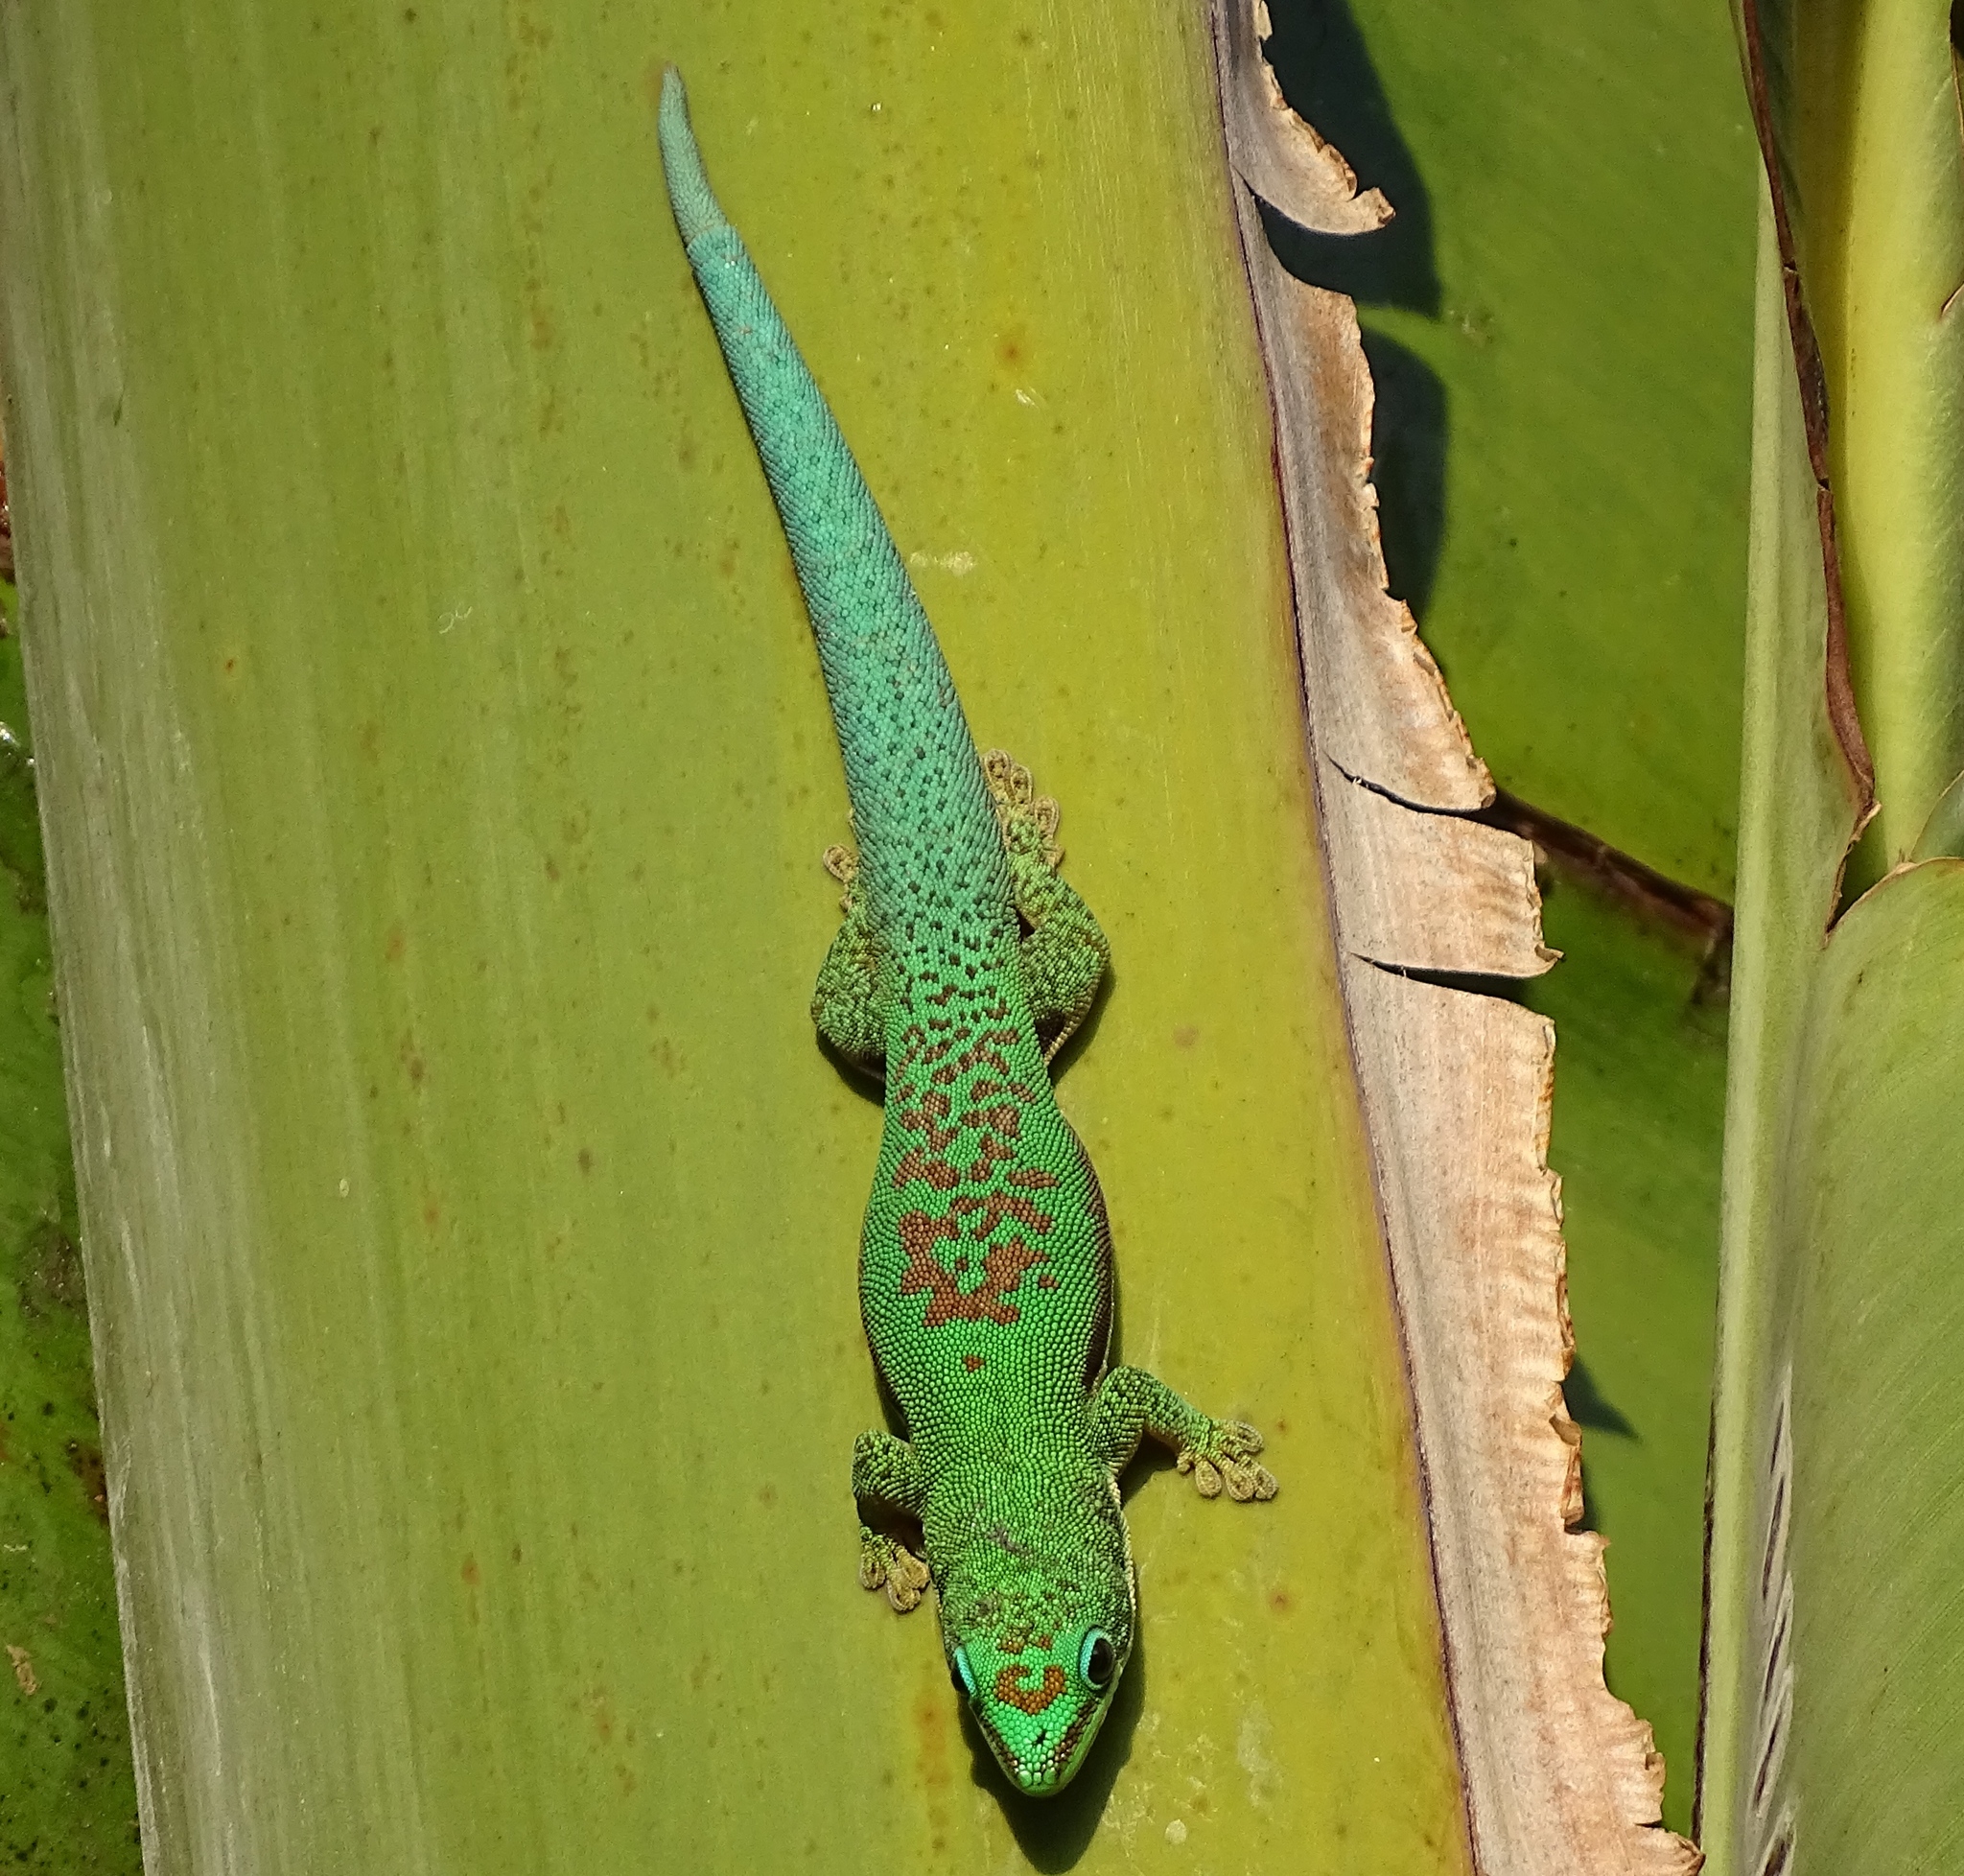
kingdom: Animalia
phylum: Chordata
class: Squamata
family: Gekkonidae
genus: Phelsuma
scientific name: Phelsuma lineata
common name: Lined day gecko
